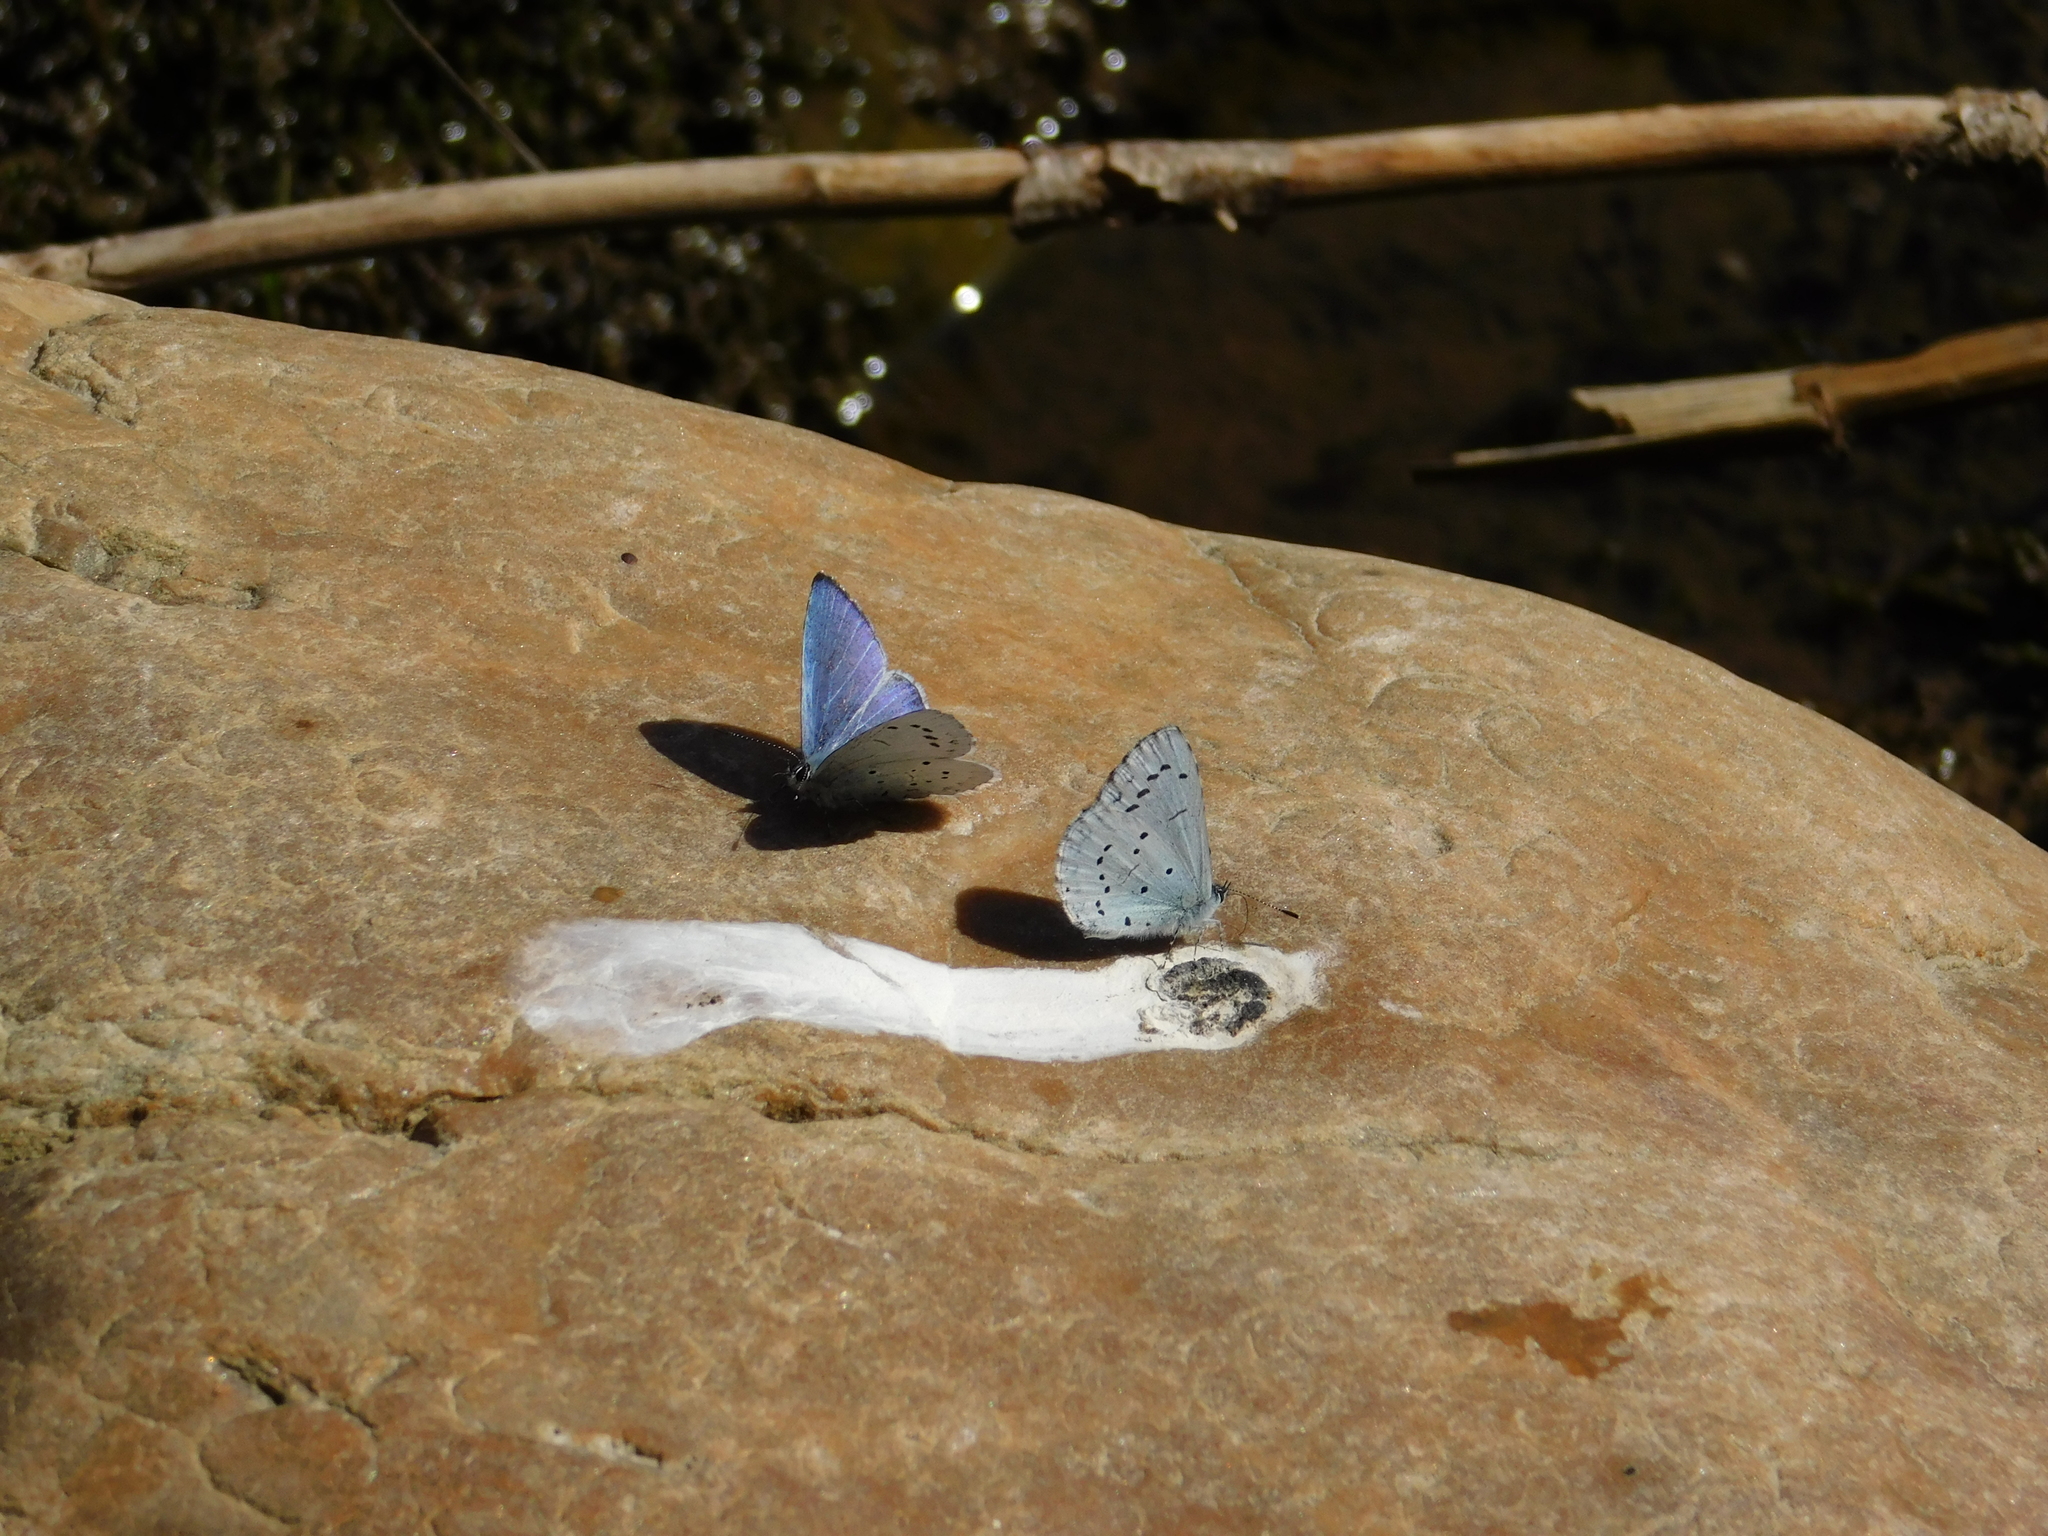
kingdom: Animalia
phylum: Arthropoda
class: Insecta
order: Lepidoptera
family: Lycaenidae
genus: Celastrina
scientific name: Celastrina argiolus
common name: Holly blue
